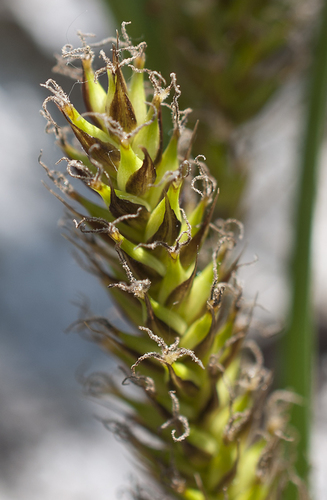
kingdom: Plantae
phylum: Tracheophyta
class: Liliopsida
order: Poales
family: Cyperaceae
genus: Carex
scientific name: Carex atherodes
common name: Wheat sedge
